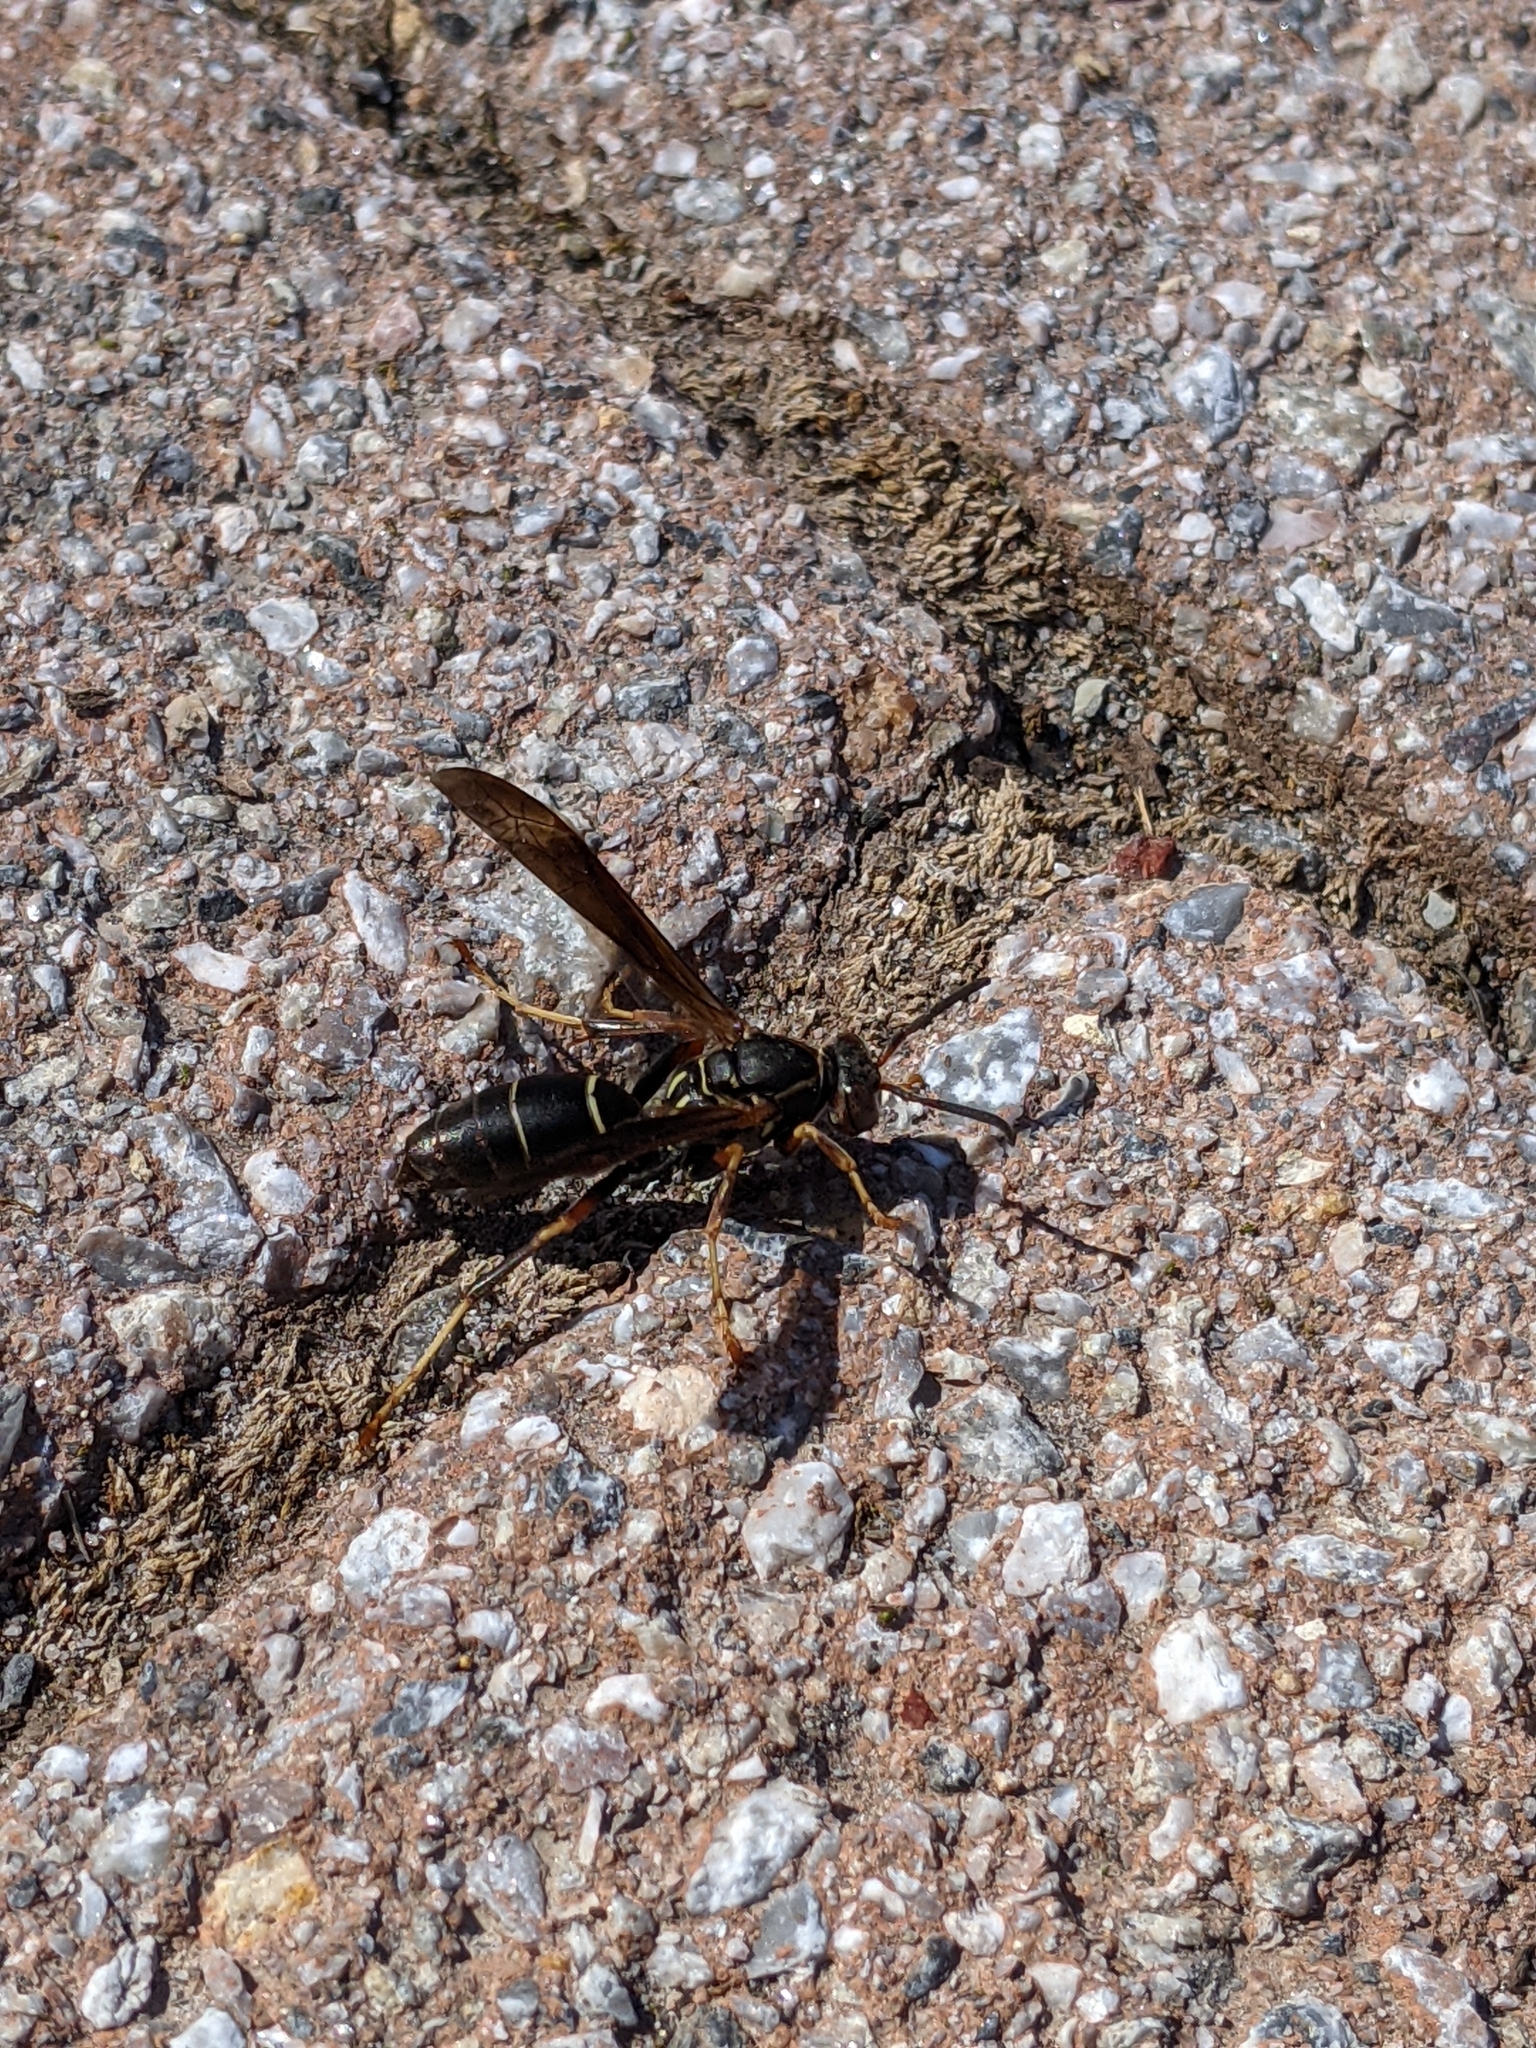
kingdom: Animalia
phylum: Arthropoda
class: Insecta
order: Hymenoptera
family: Eumenidae
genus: Polistes
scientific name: Polistes fuscatus
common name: Dark paper wasp
